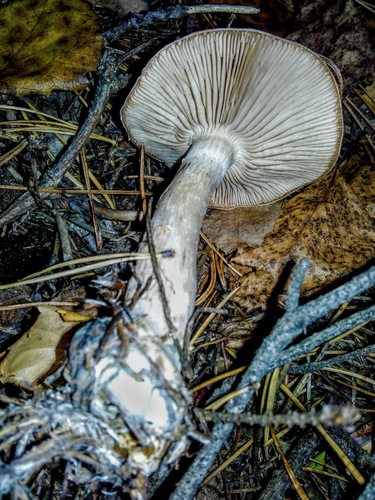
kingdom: Fungi
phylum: Basidiomycota
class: Agaricomycetes
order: Agaricales
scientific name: Agaricales
